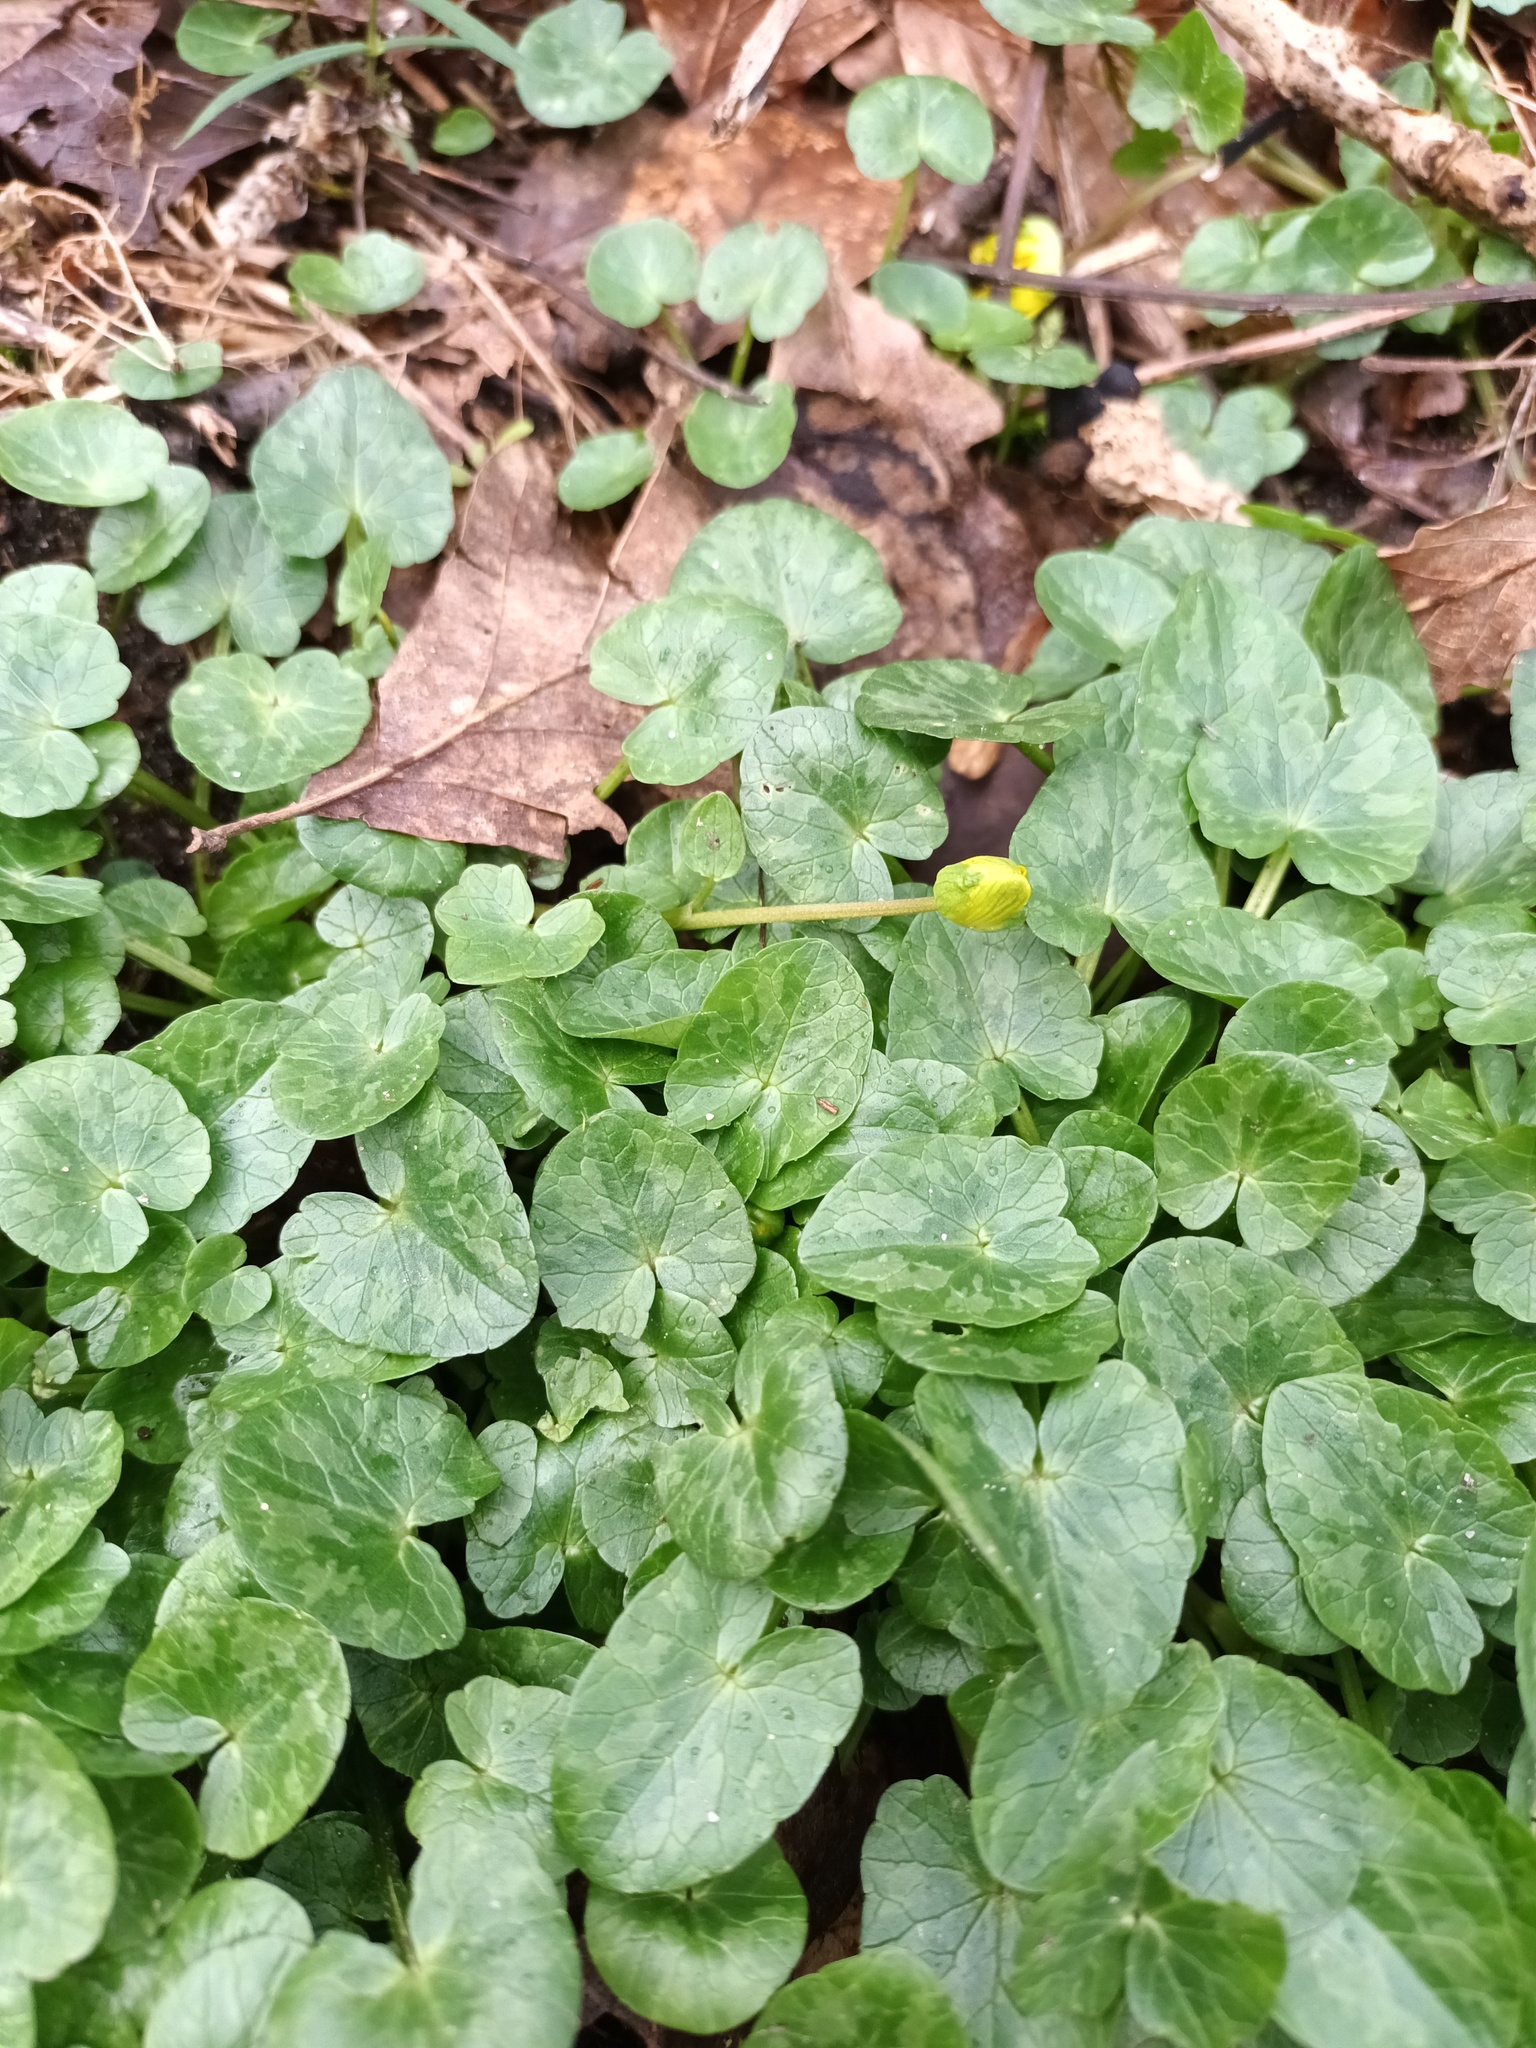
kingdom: Plantae
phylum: Tracheophyta
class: Magnoliopsida
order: Ranunculales
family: Ranunculaceae
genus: Ficaria
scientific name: Ficaria verna
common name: Lesser celandine
